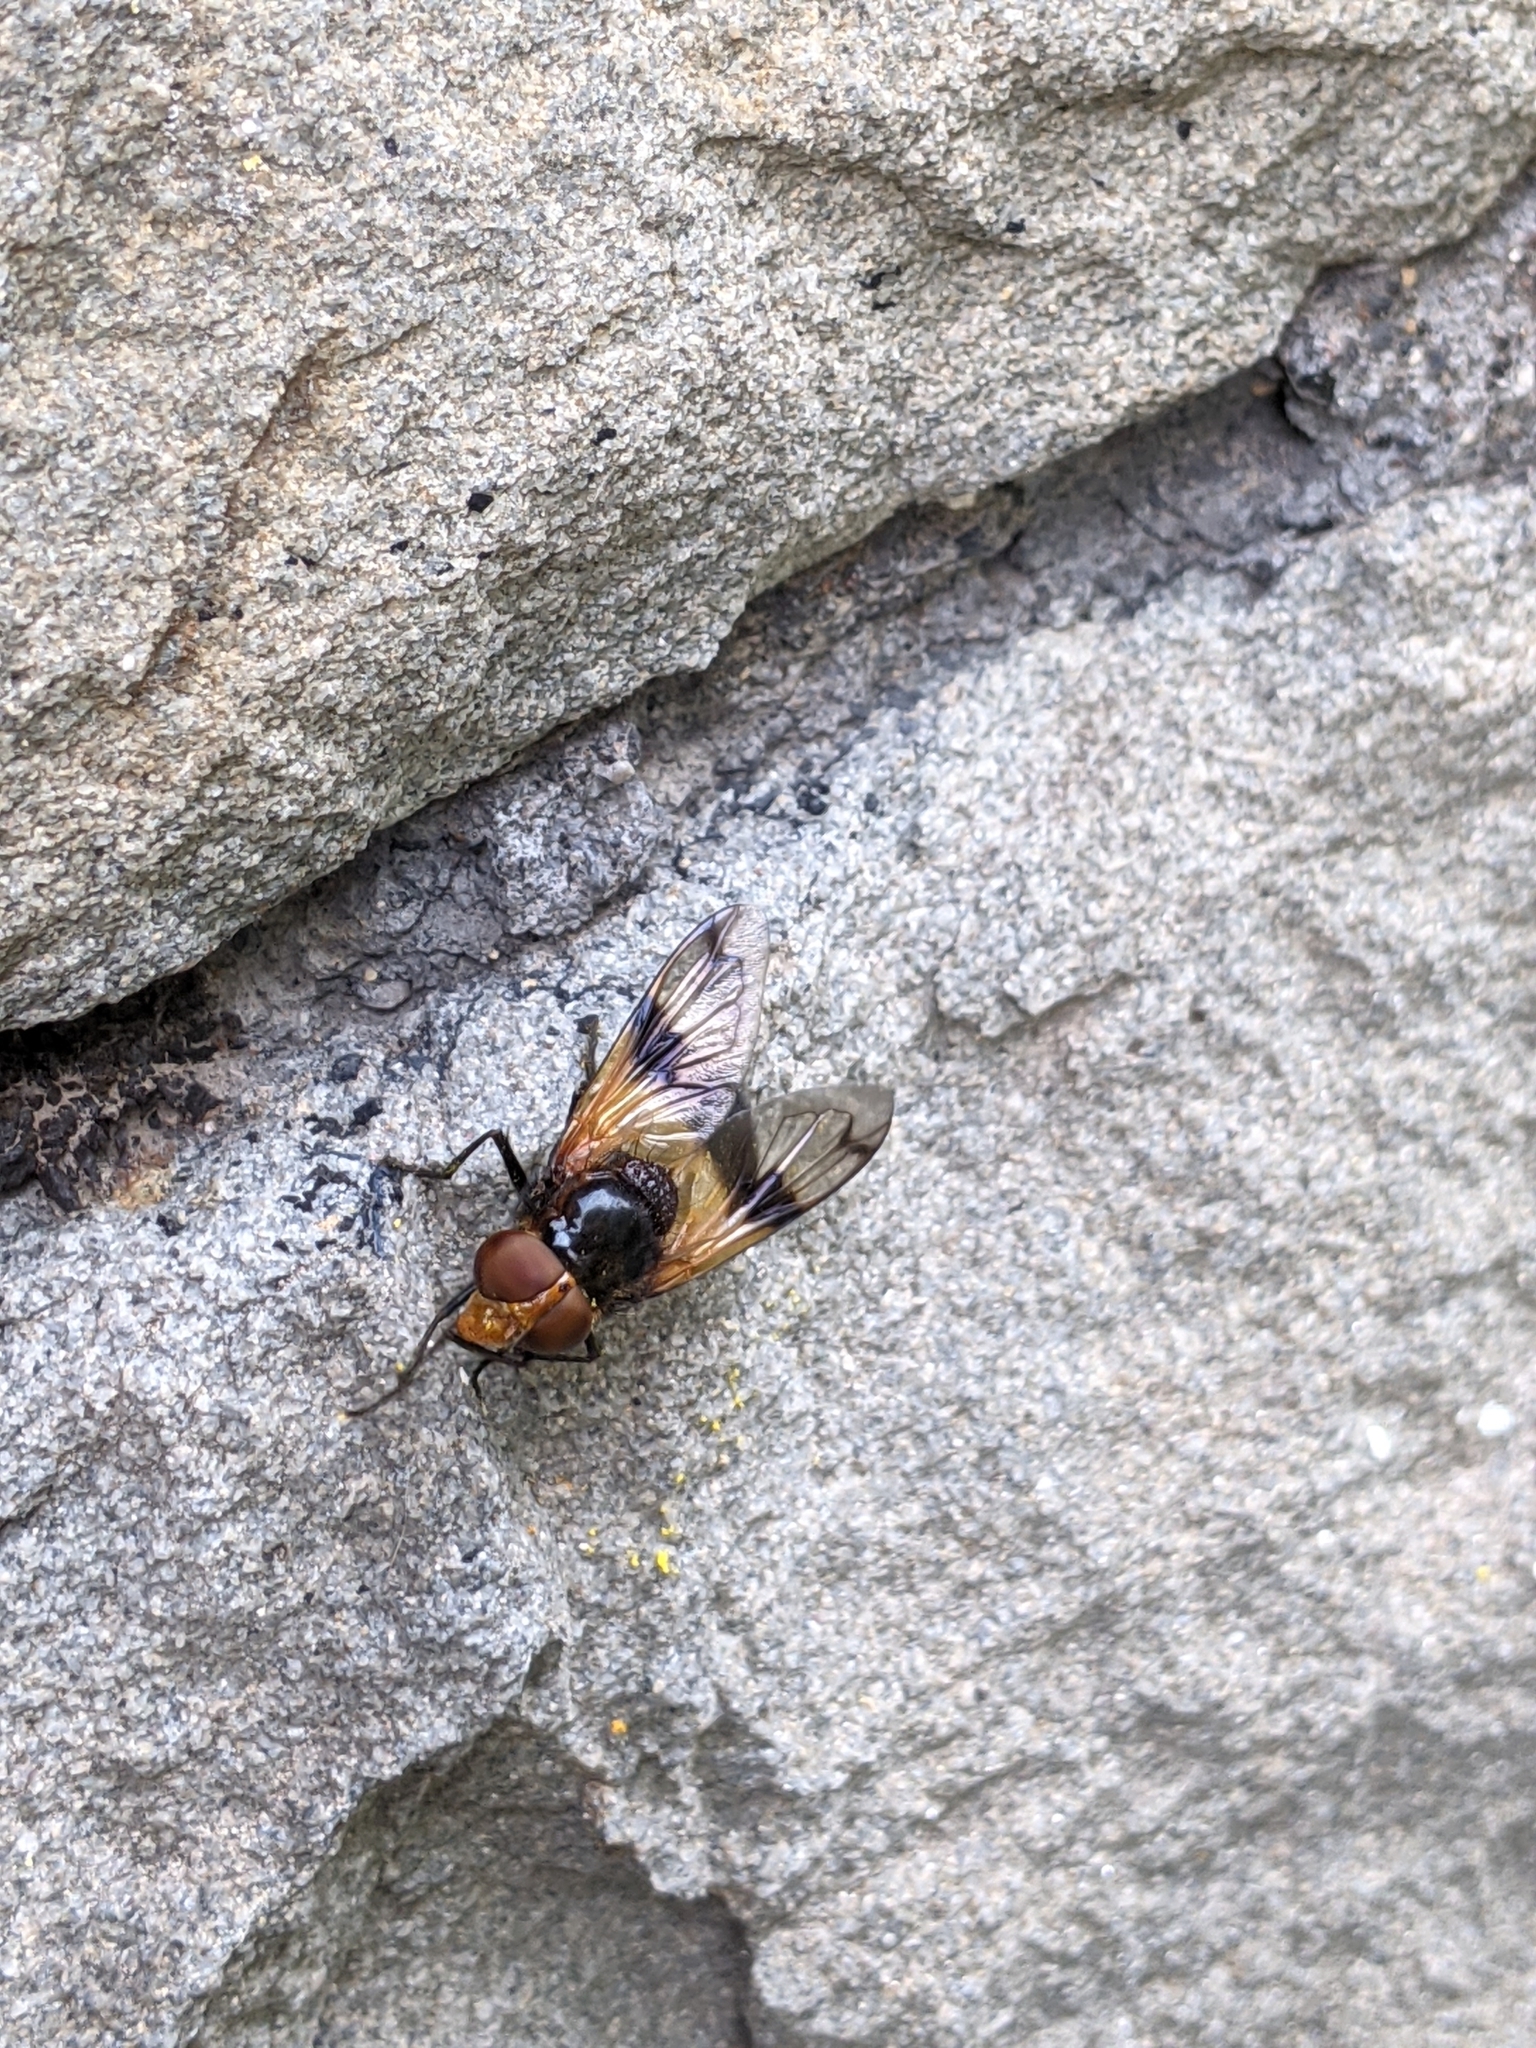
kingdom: Animalia
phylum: Arthropoda
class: Insecta
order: Diptera
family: Syrphidae
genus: Volucella
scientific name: Volucella pellucens
